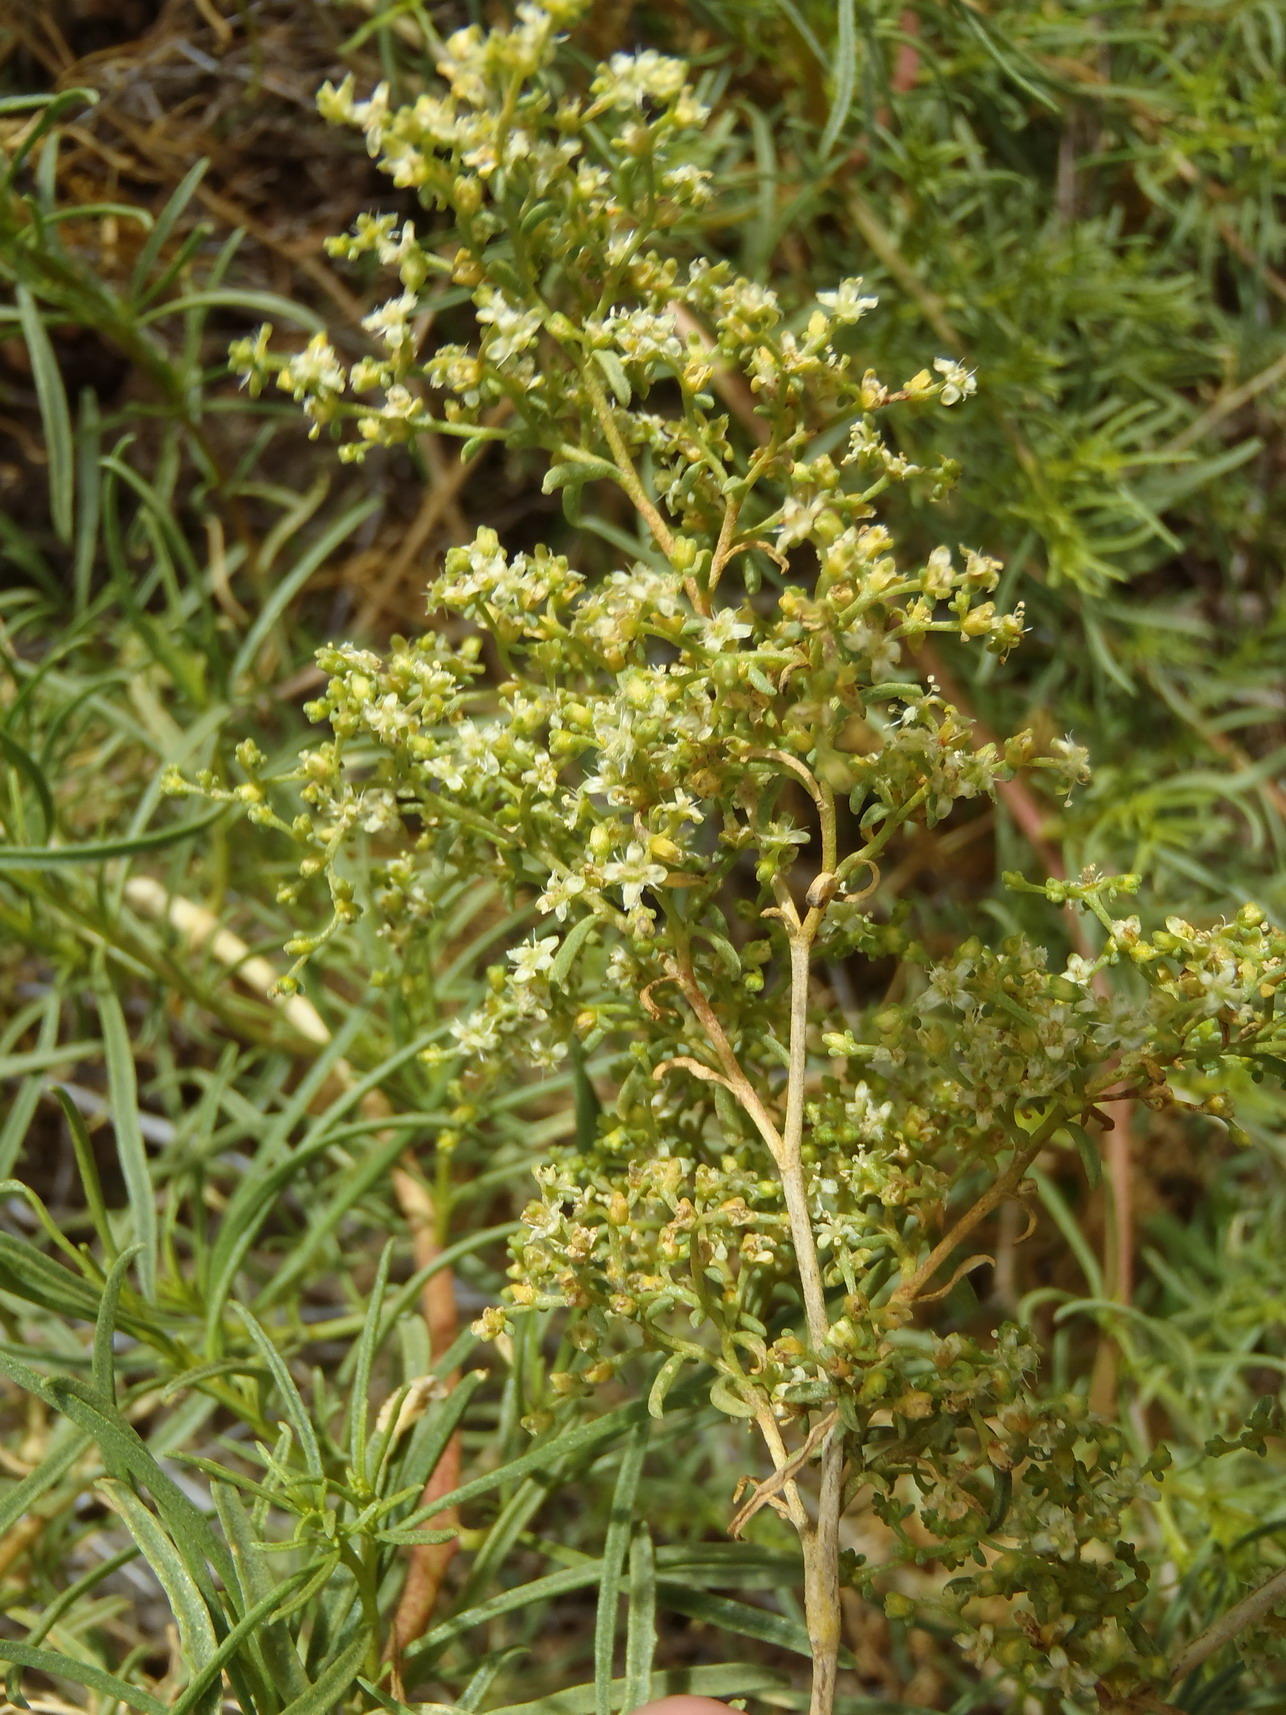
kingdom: Plantae
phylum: Tracheophyta
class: Magnoliopsida
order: Caryophyllales
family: Aizoaceae
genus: Aizoon
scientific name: Aizoon africanum
